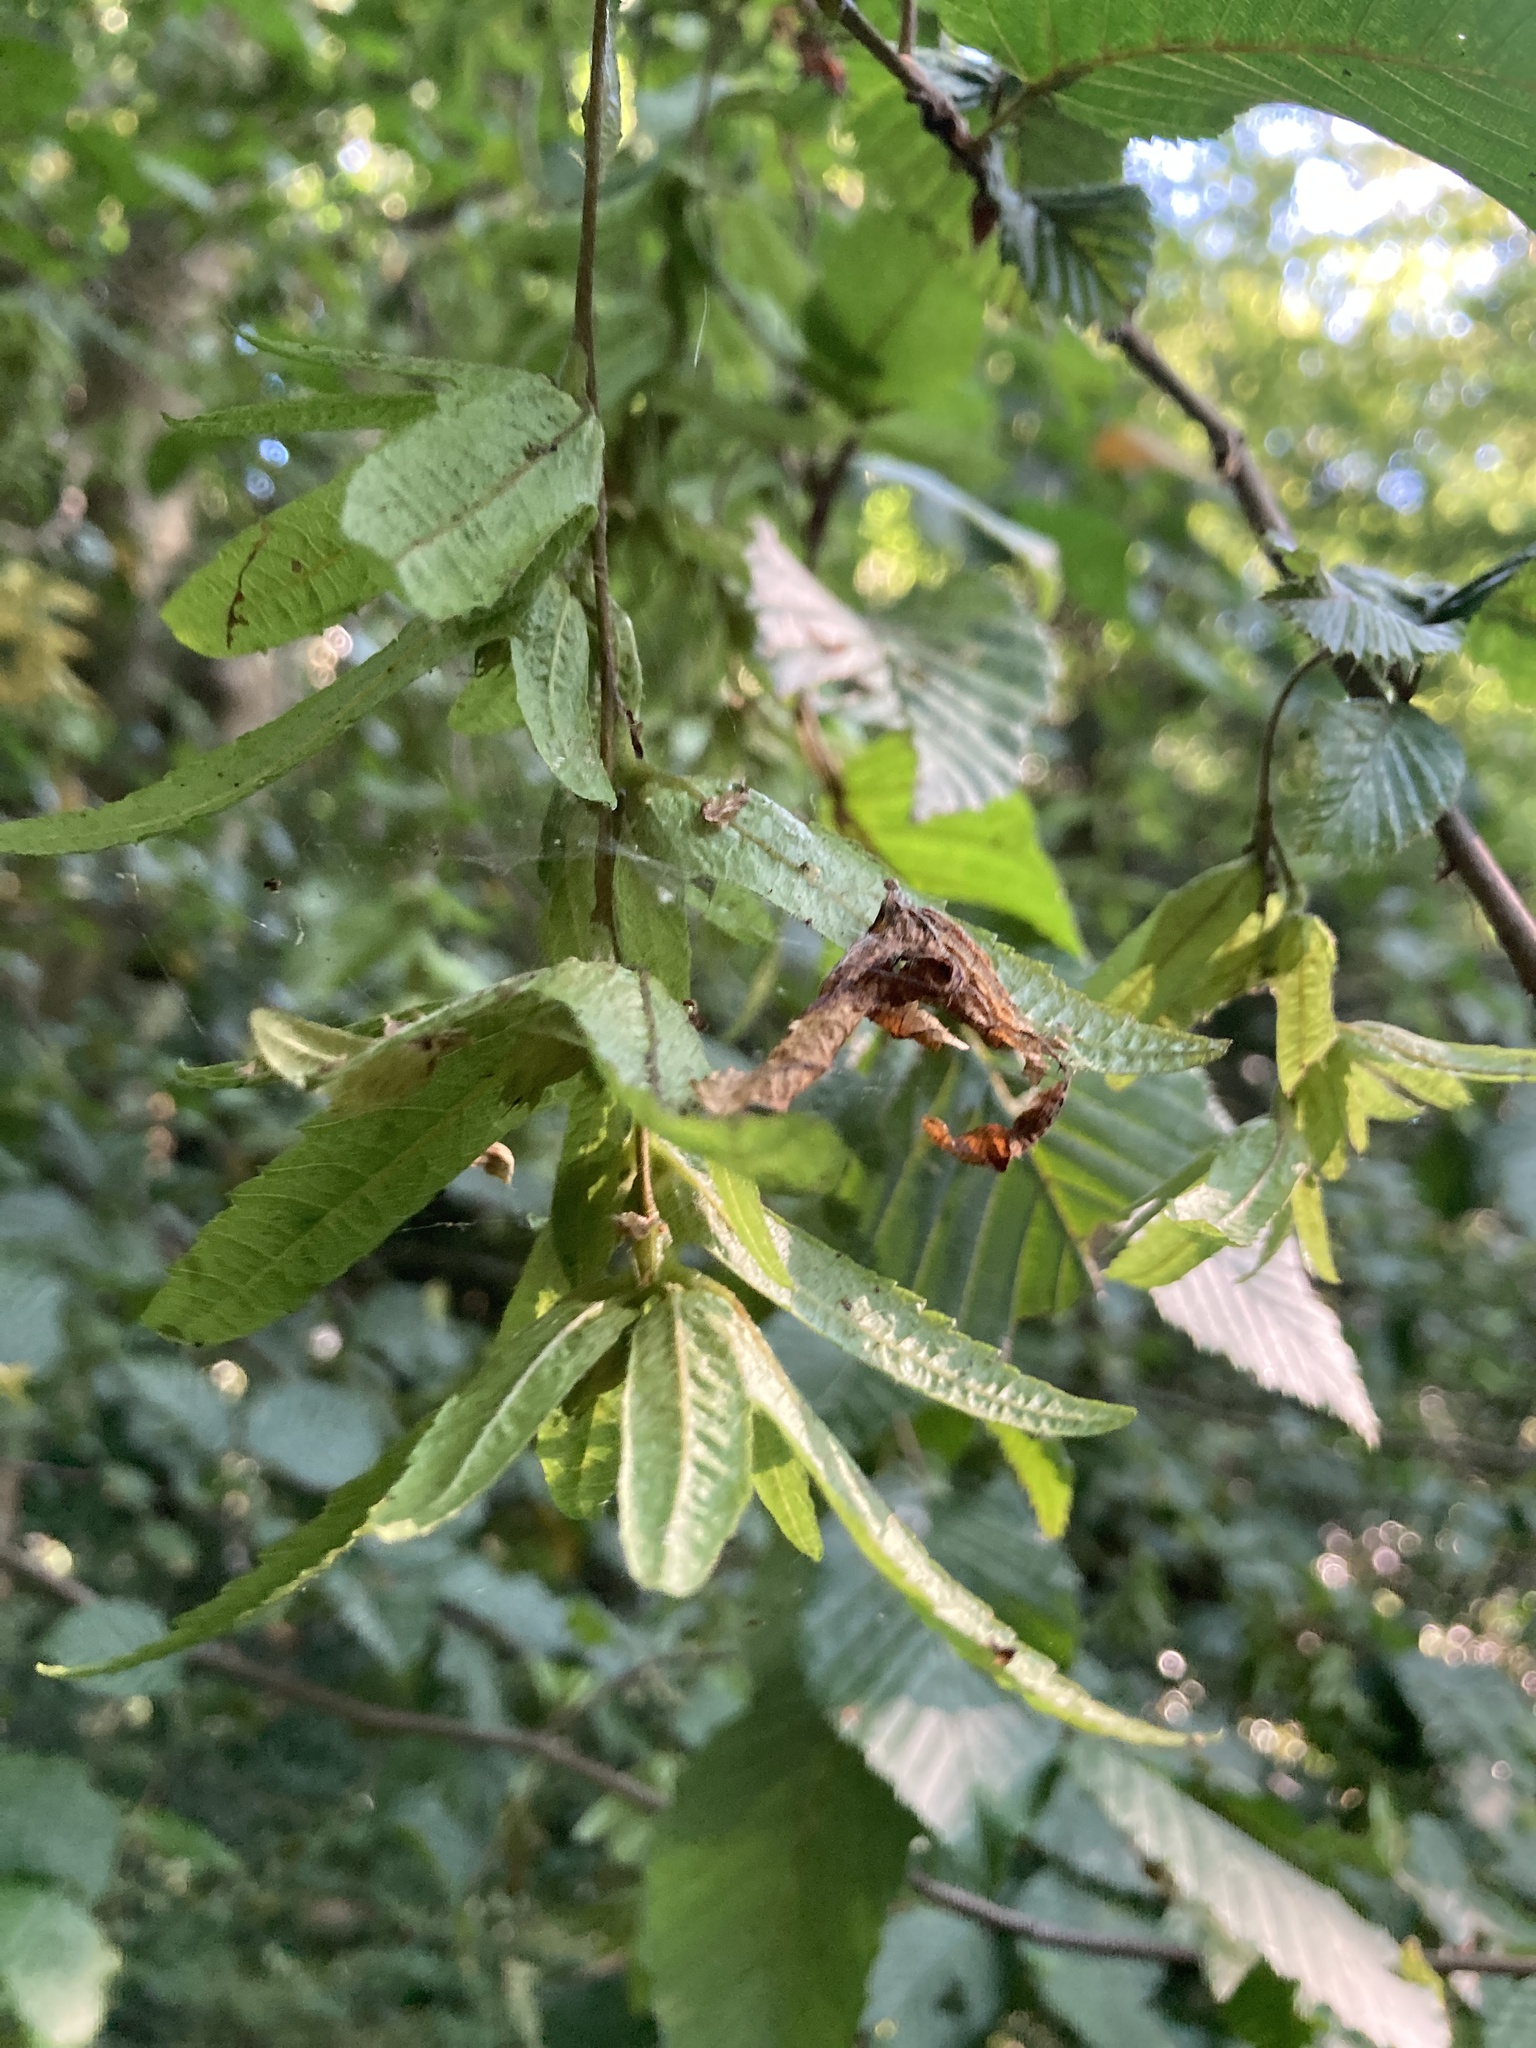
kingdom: Plantae
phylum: Tracheophyta
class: Magnoliopsida
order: Fagales
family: Betulaceae
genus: Carpinus
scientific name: Carpinus betulus
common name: Hornbeam
